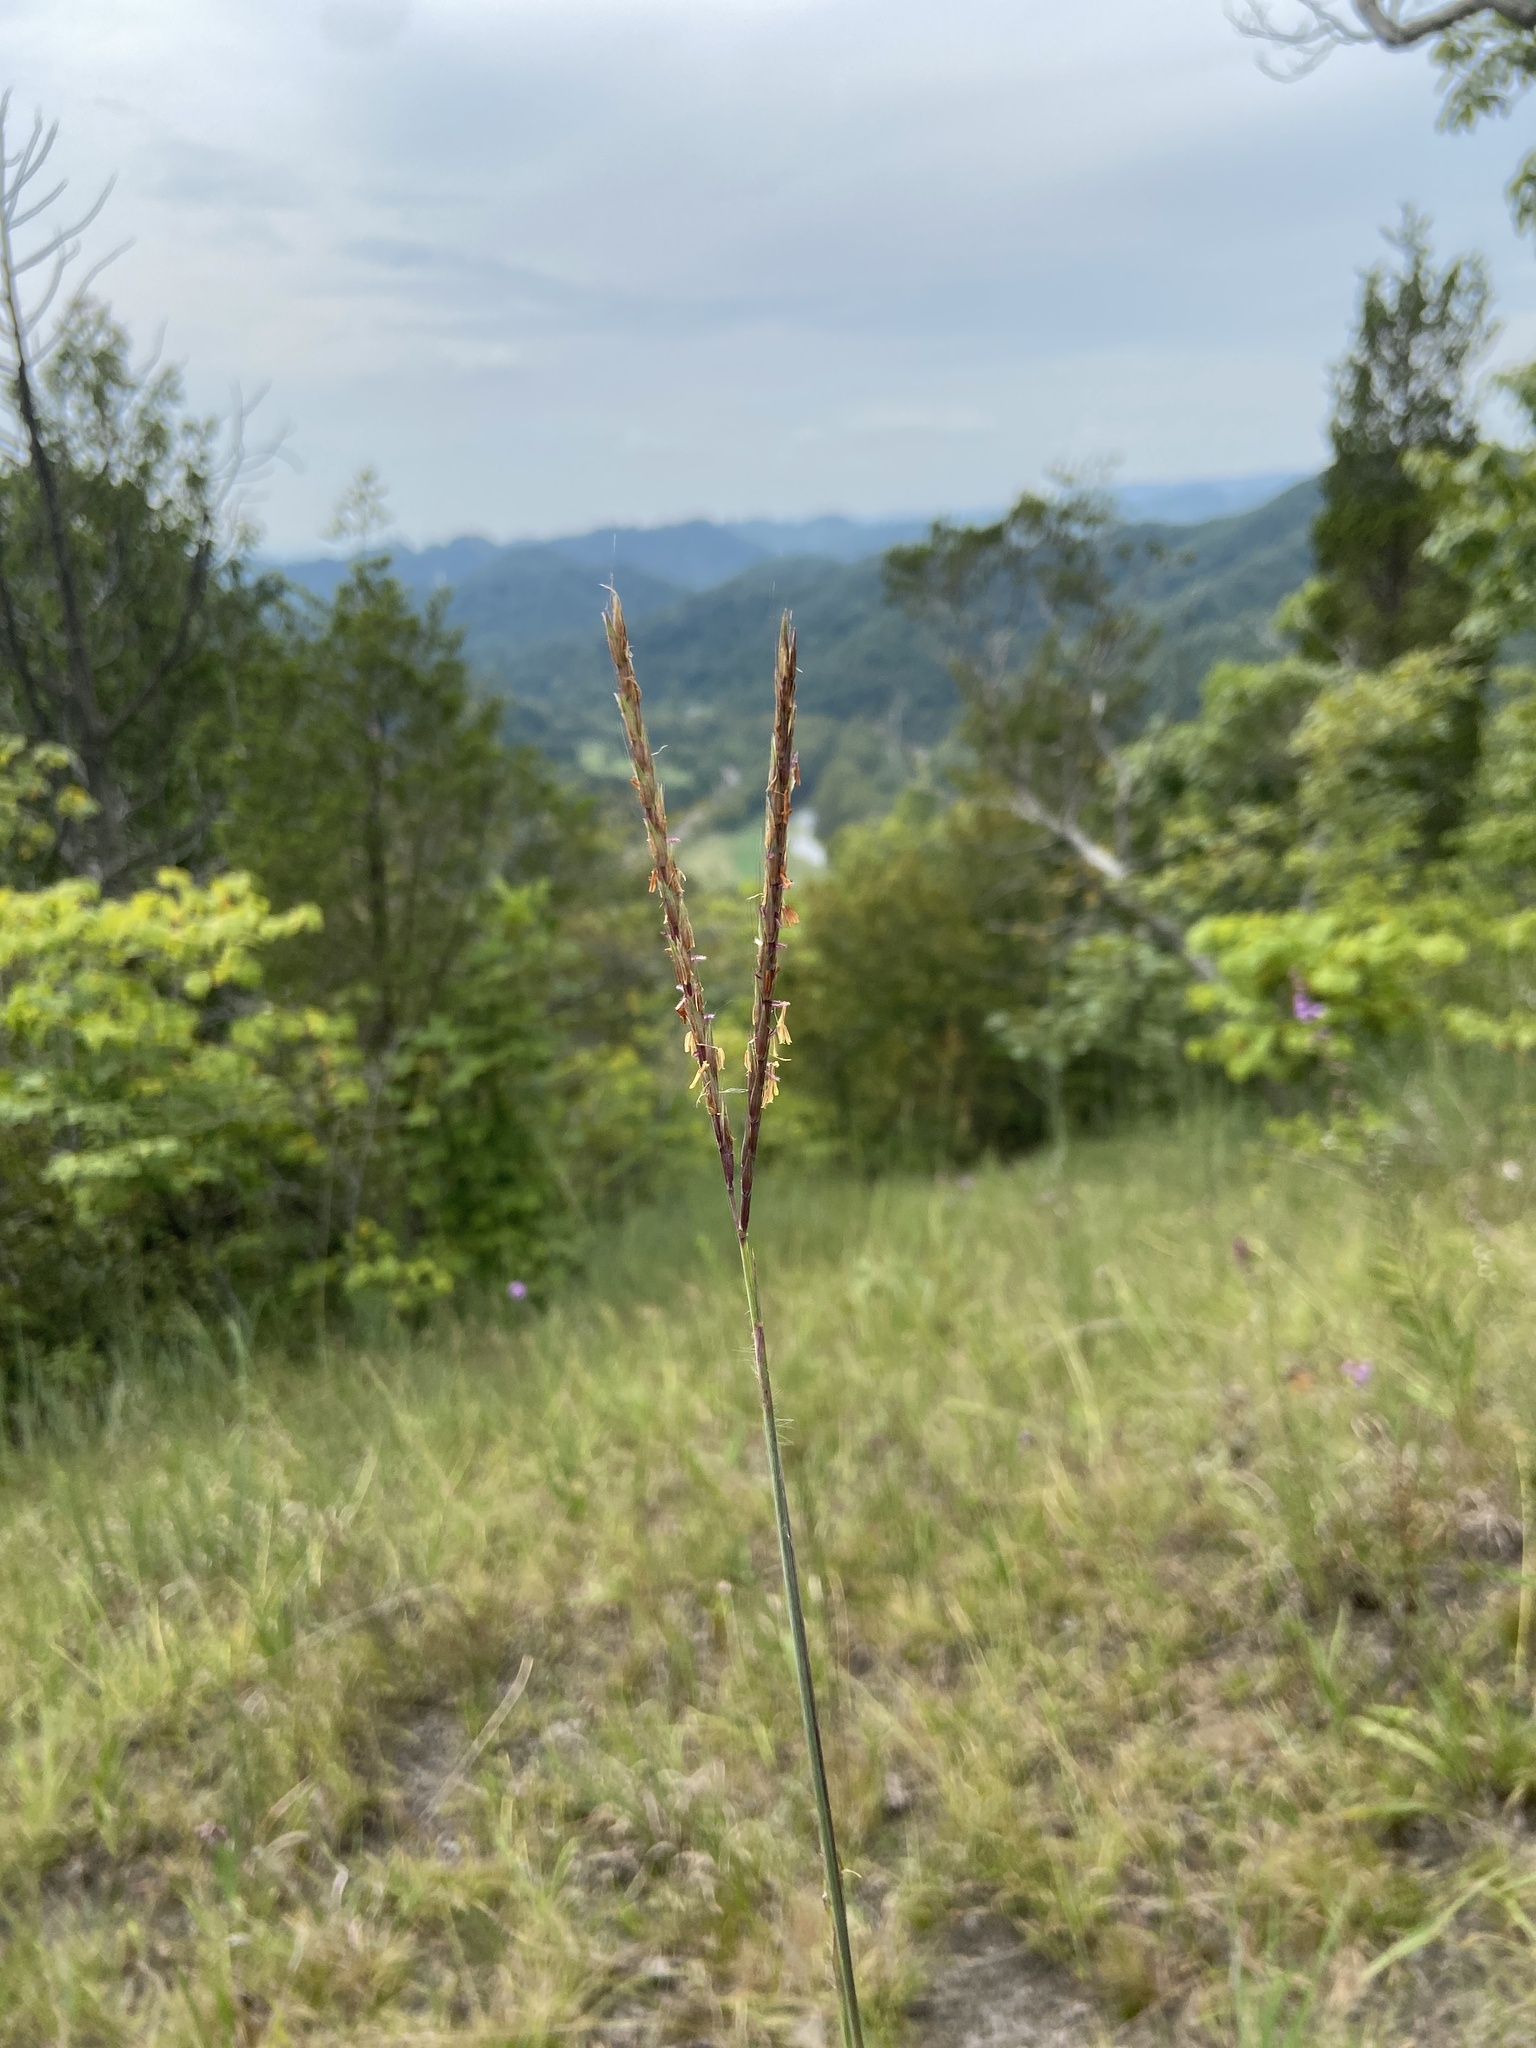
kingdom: Plantae
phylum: Tracheophyta
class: Liliopsida
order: Poales
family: Poaceae
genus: Andropogon
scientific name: Andropogon gerardi
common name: Big bluestem
